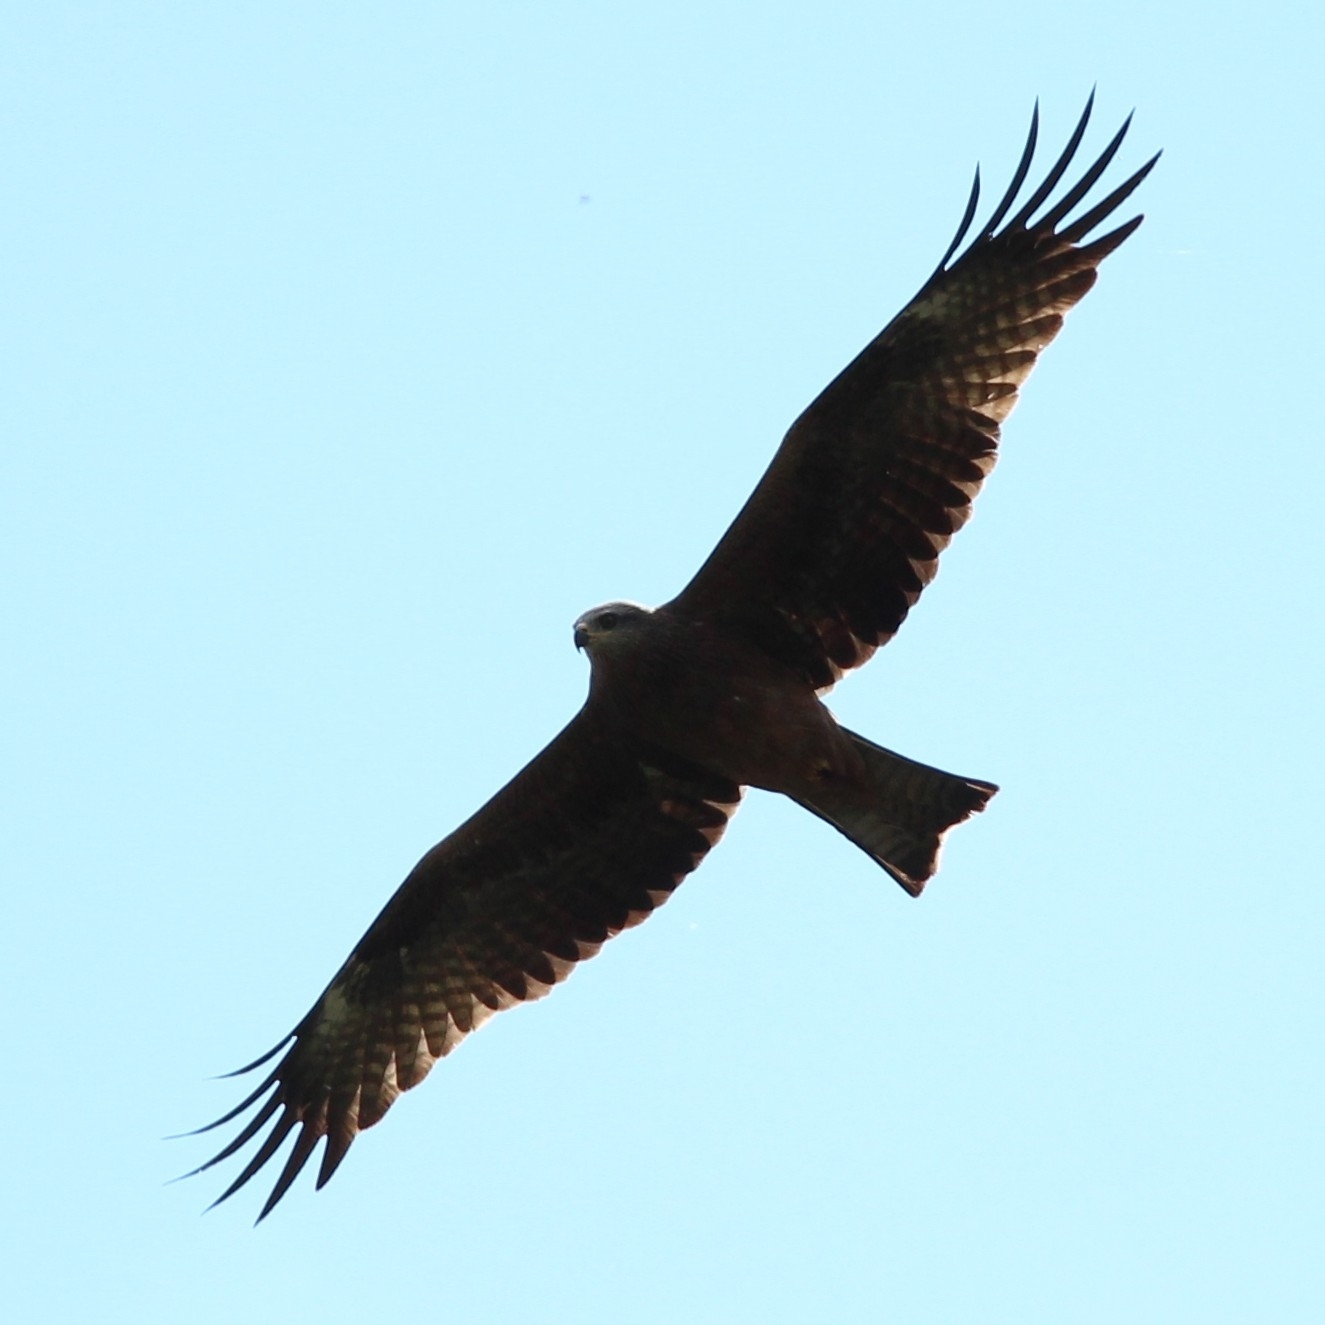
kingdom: Animalia
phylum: Chordata
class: Aves
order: Accipitriformes
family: Accipitridae
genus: Milvus
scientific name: Milvus migrans
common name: Black kite
